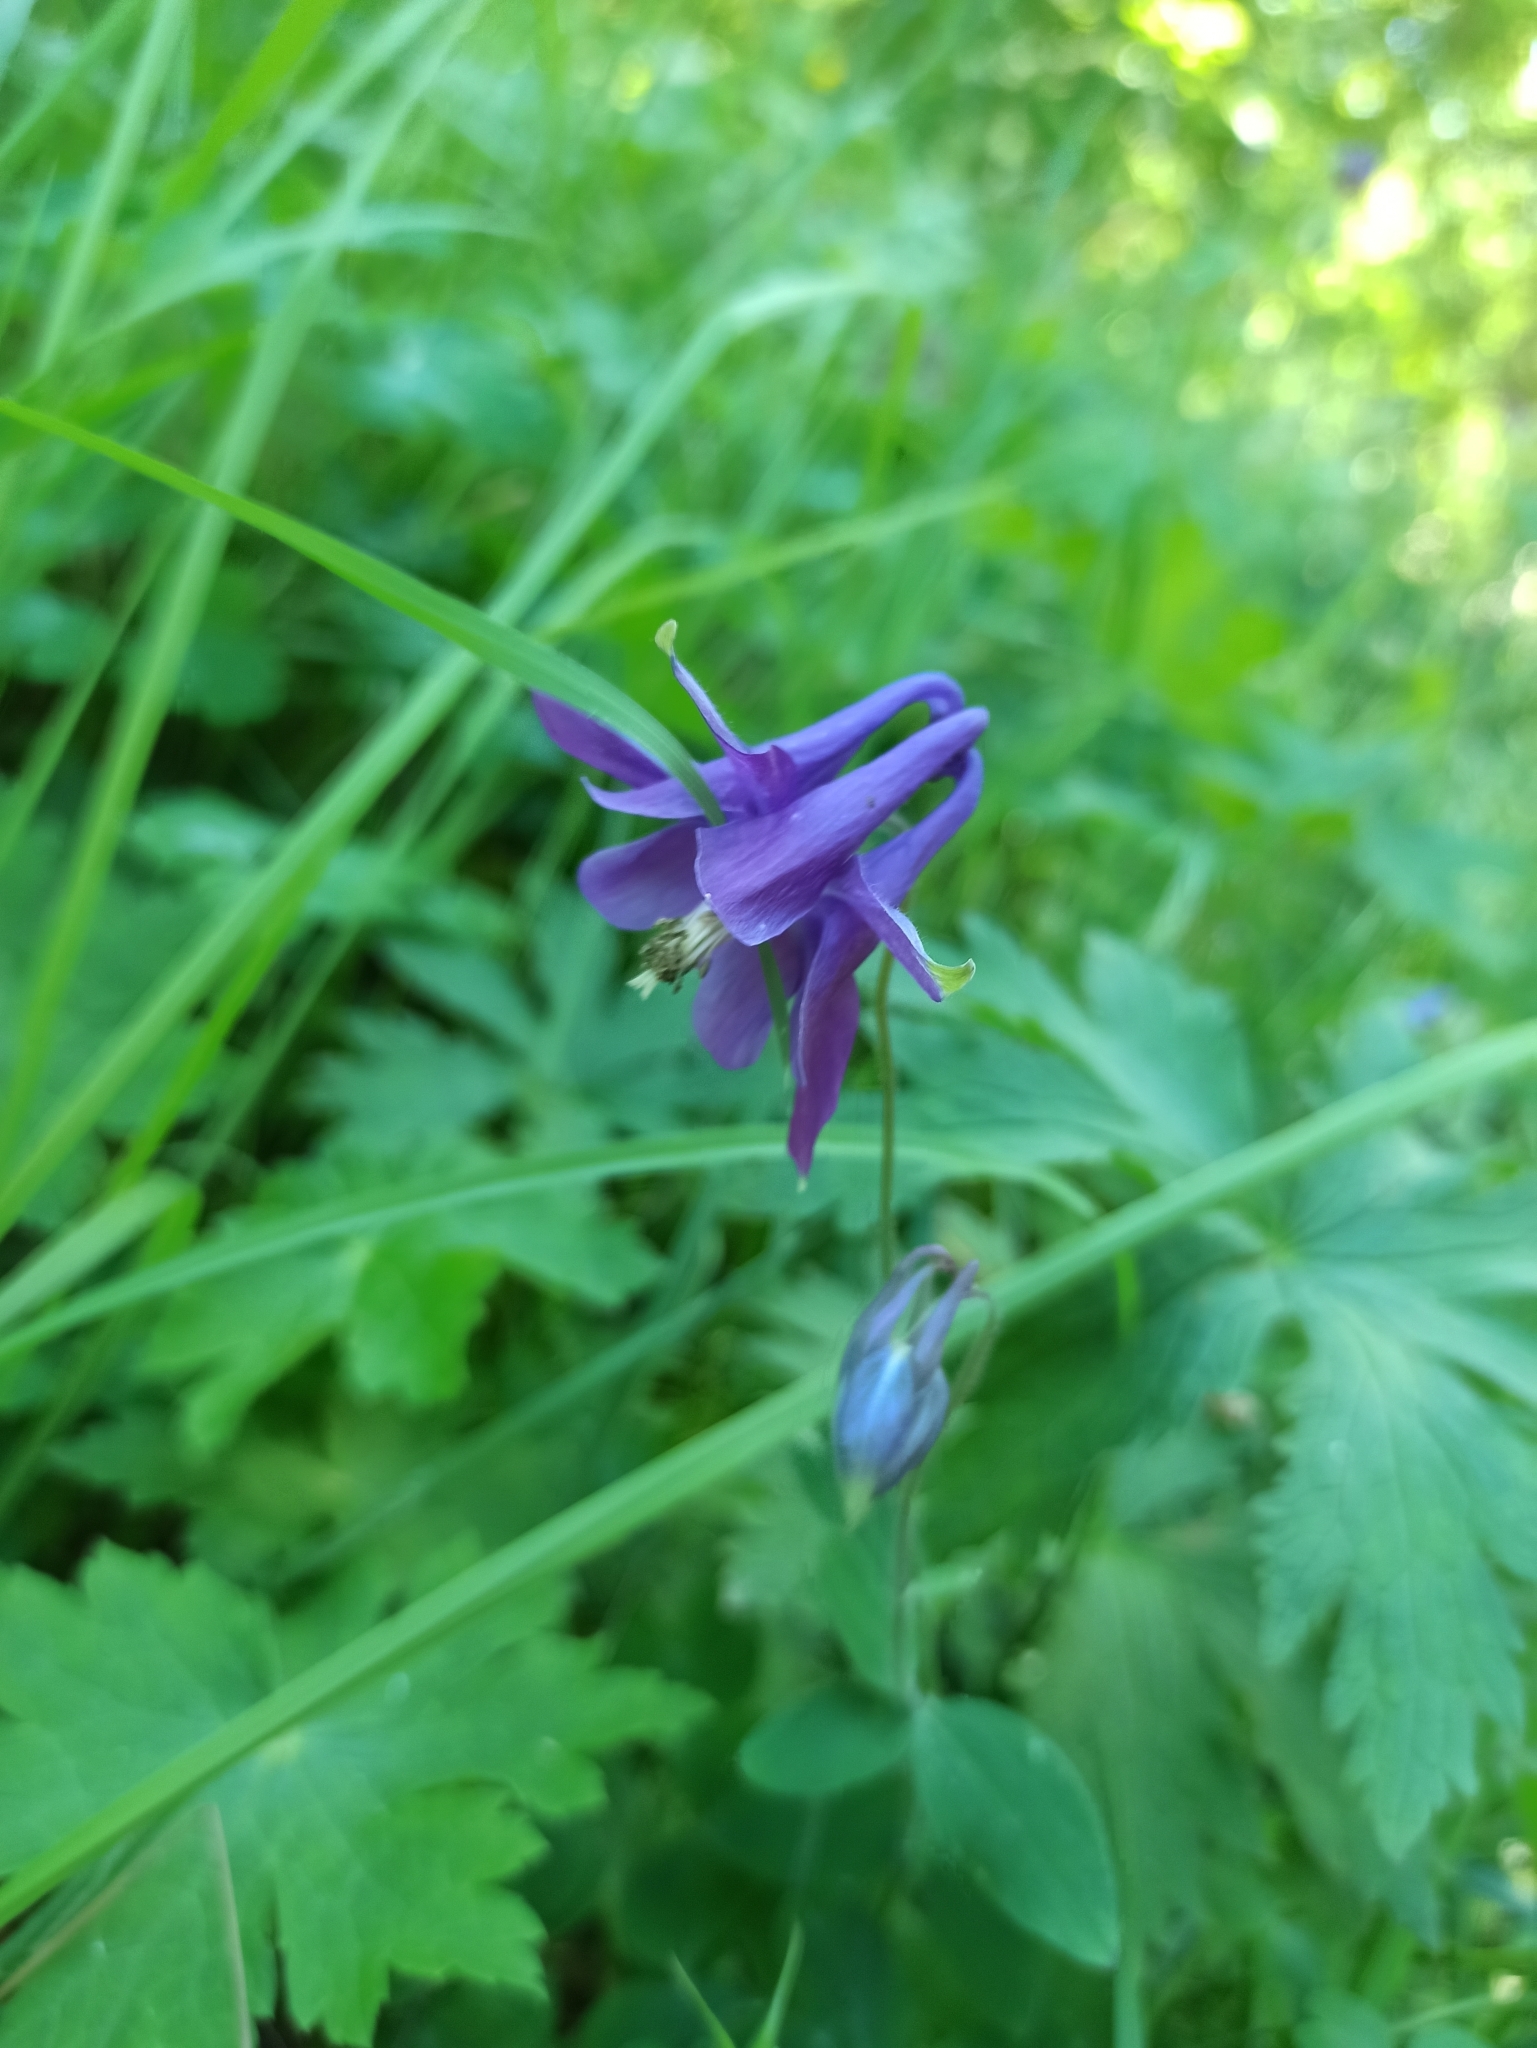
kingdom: Plantae
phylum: Tracheophyta
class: Magnoliopsida
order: Ranunculales
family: Ranunculaceae
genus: Aquilegia
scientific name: Aquilegia vulgaris
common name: Columbine
